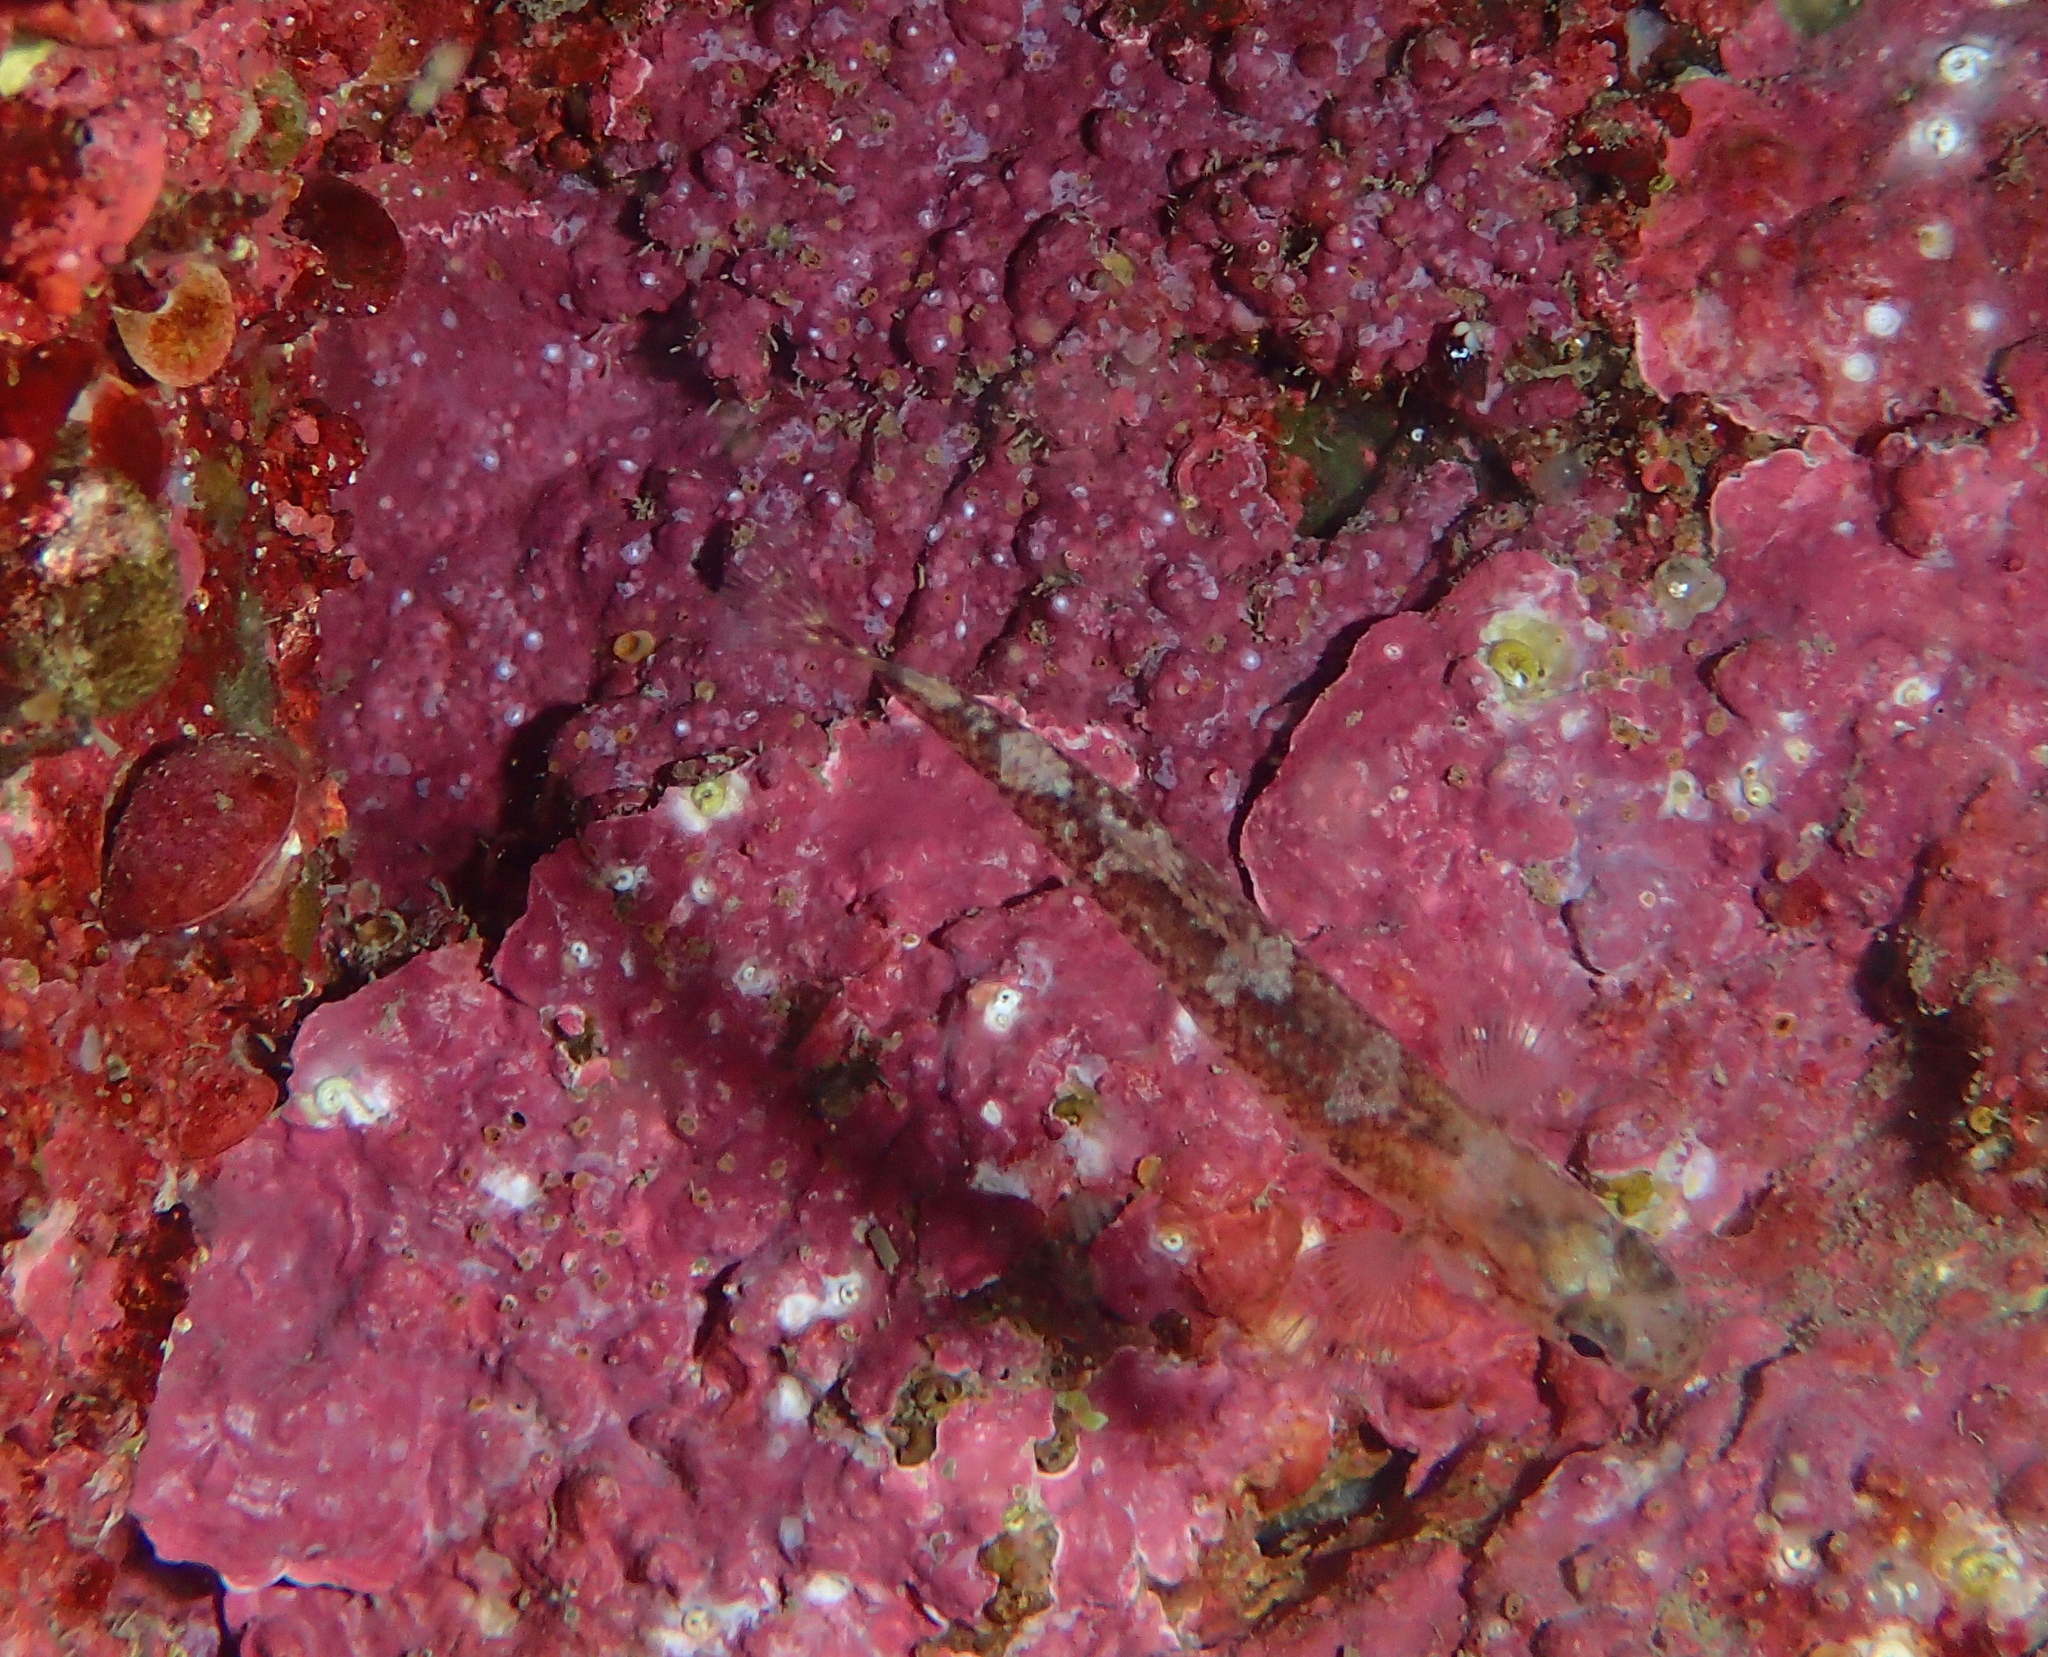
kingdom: Animalia
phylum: Chordata
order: Perciformes
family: Gobiidae
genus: Gobiusculus
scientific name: Gobiusculus flavescens
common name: Two-spotted goby
